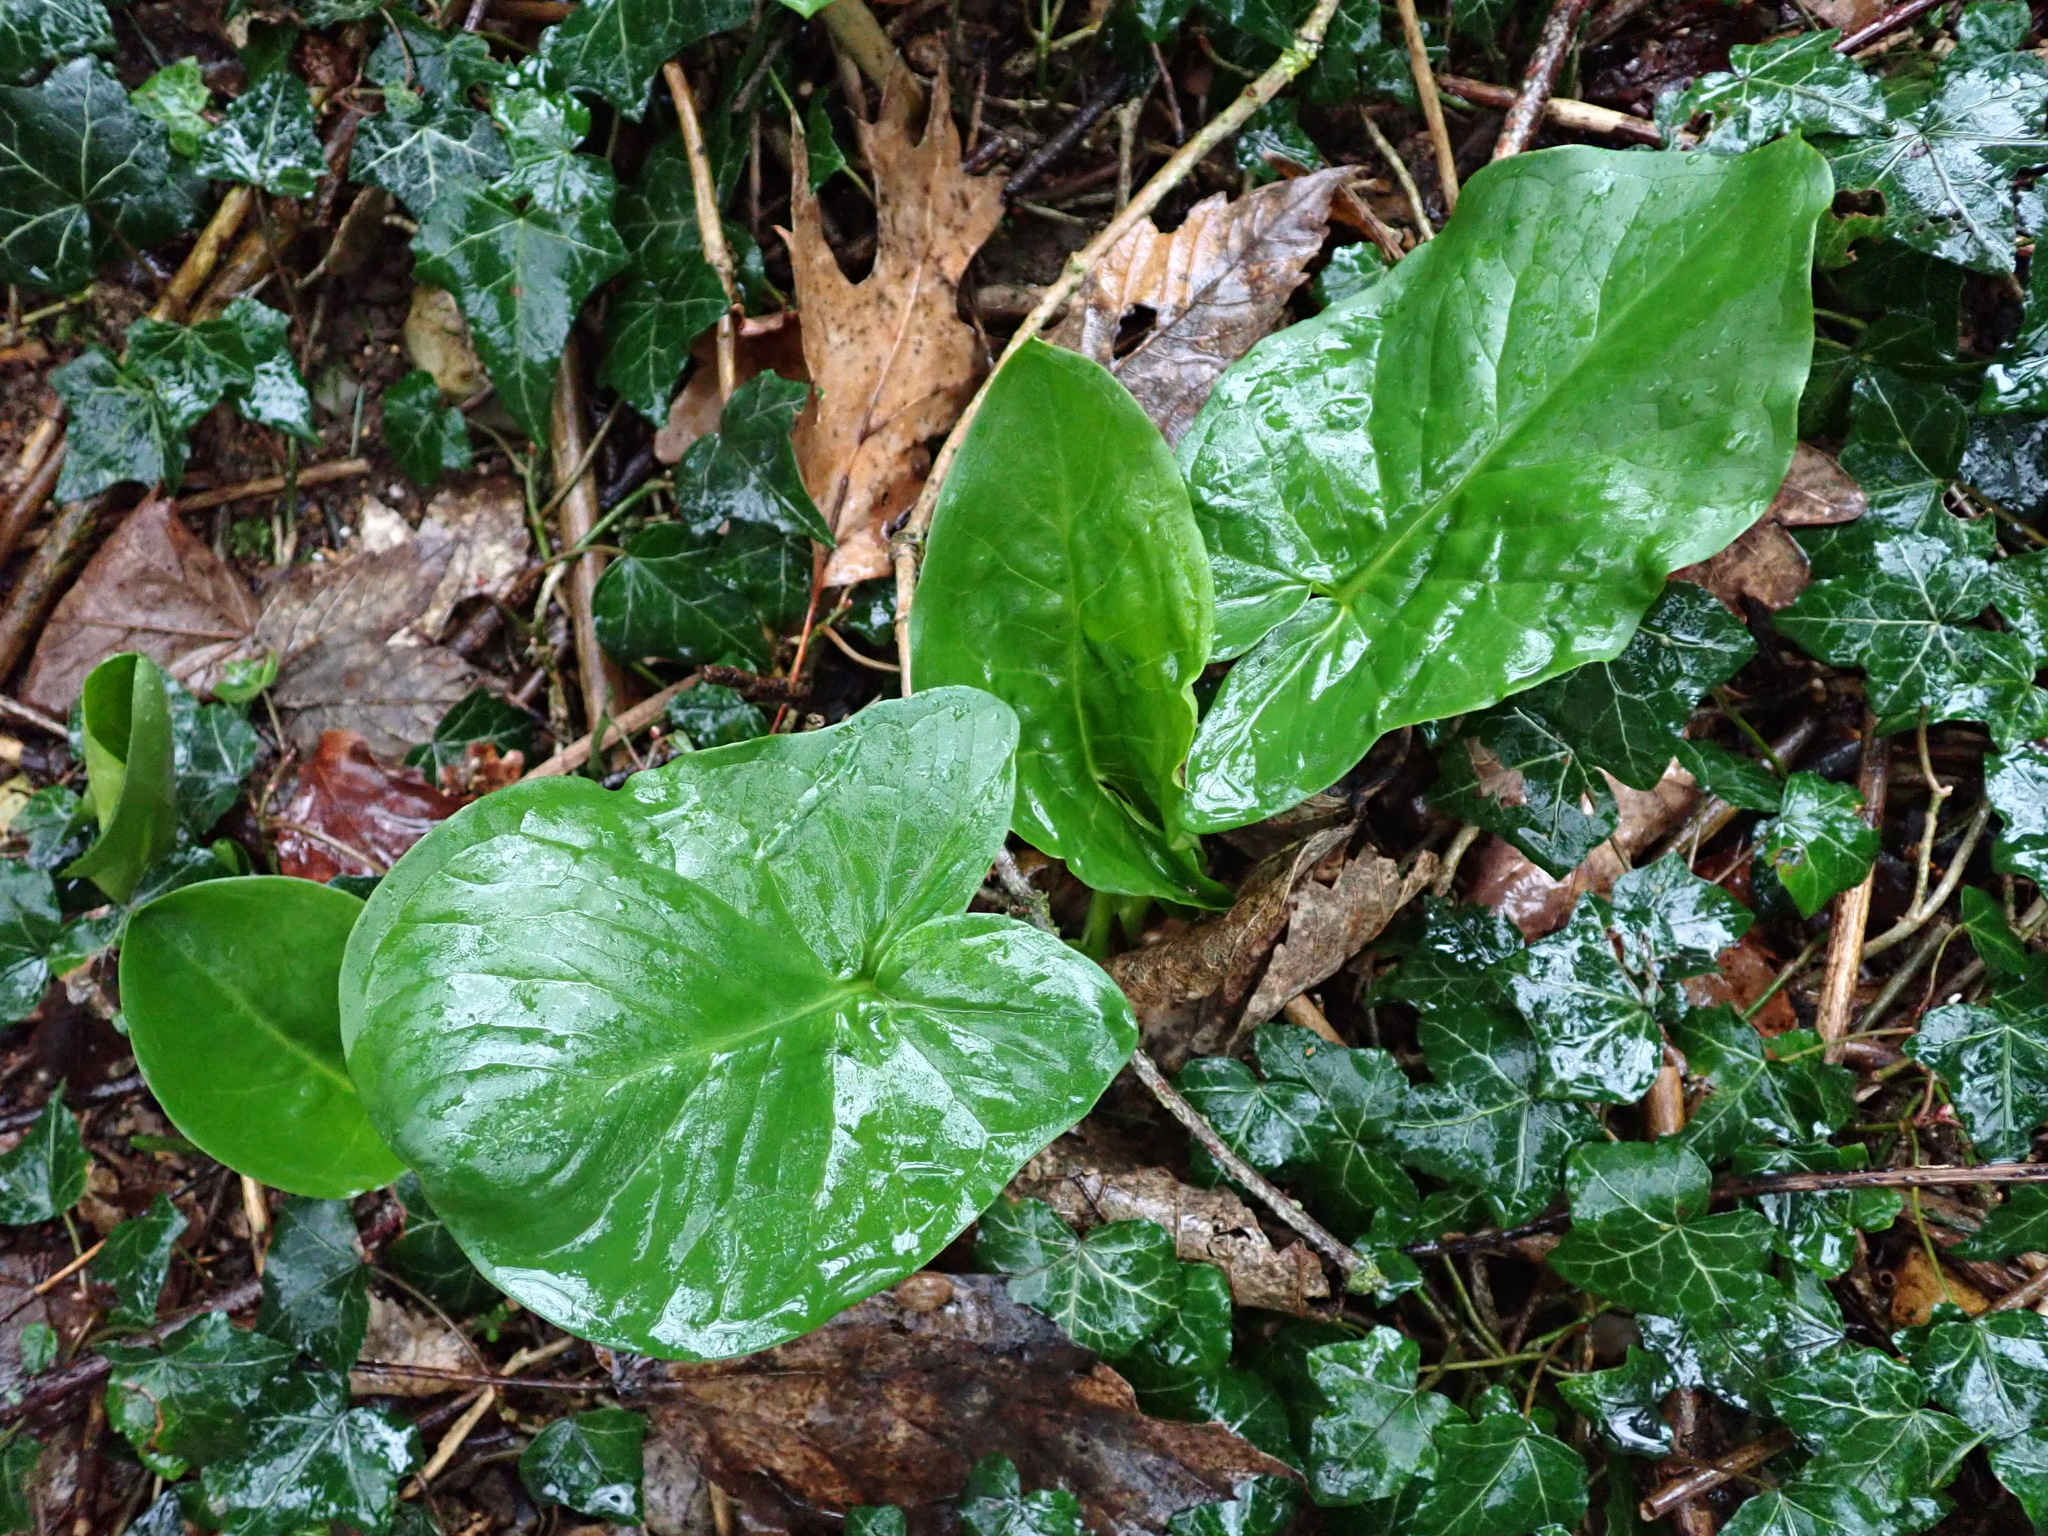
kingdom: Plantae
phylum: Tracheophyta
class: Liliopsida
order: Alismatales
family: Araceae
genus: Arum
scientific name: Arum maculatum
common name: Lords-and-ladies
